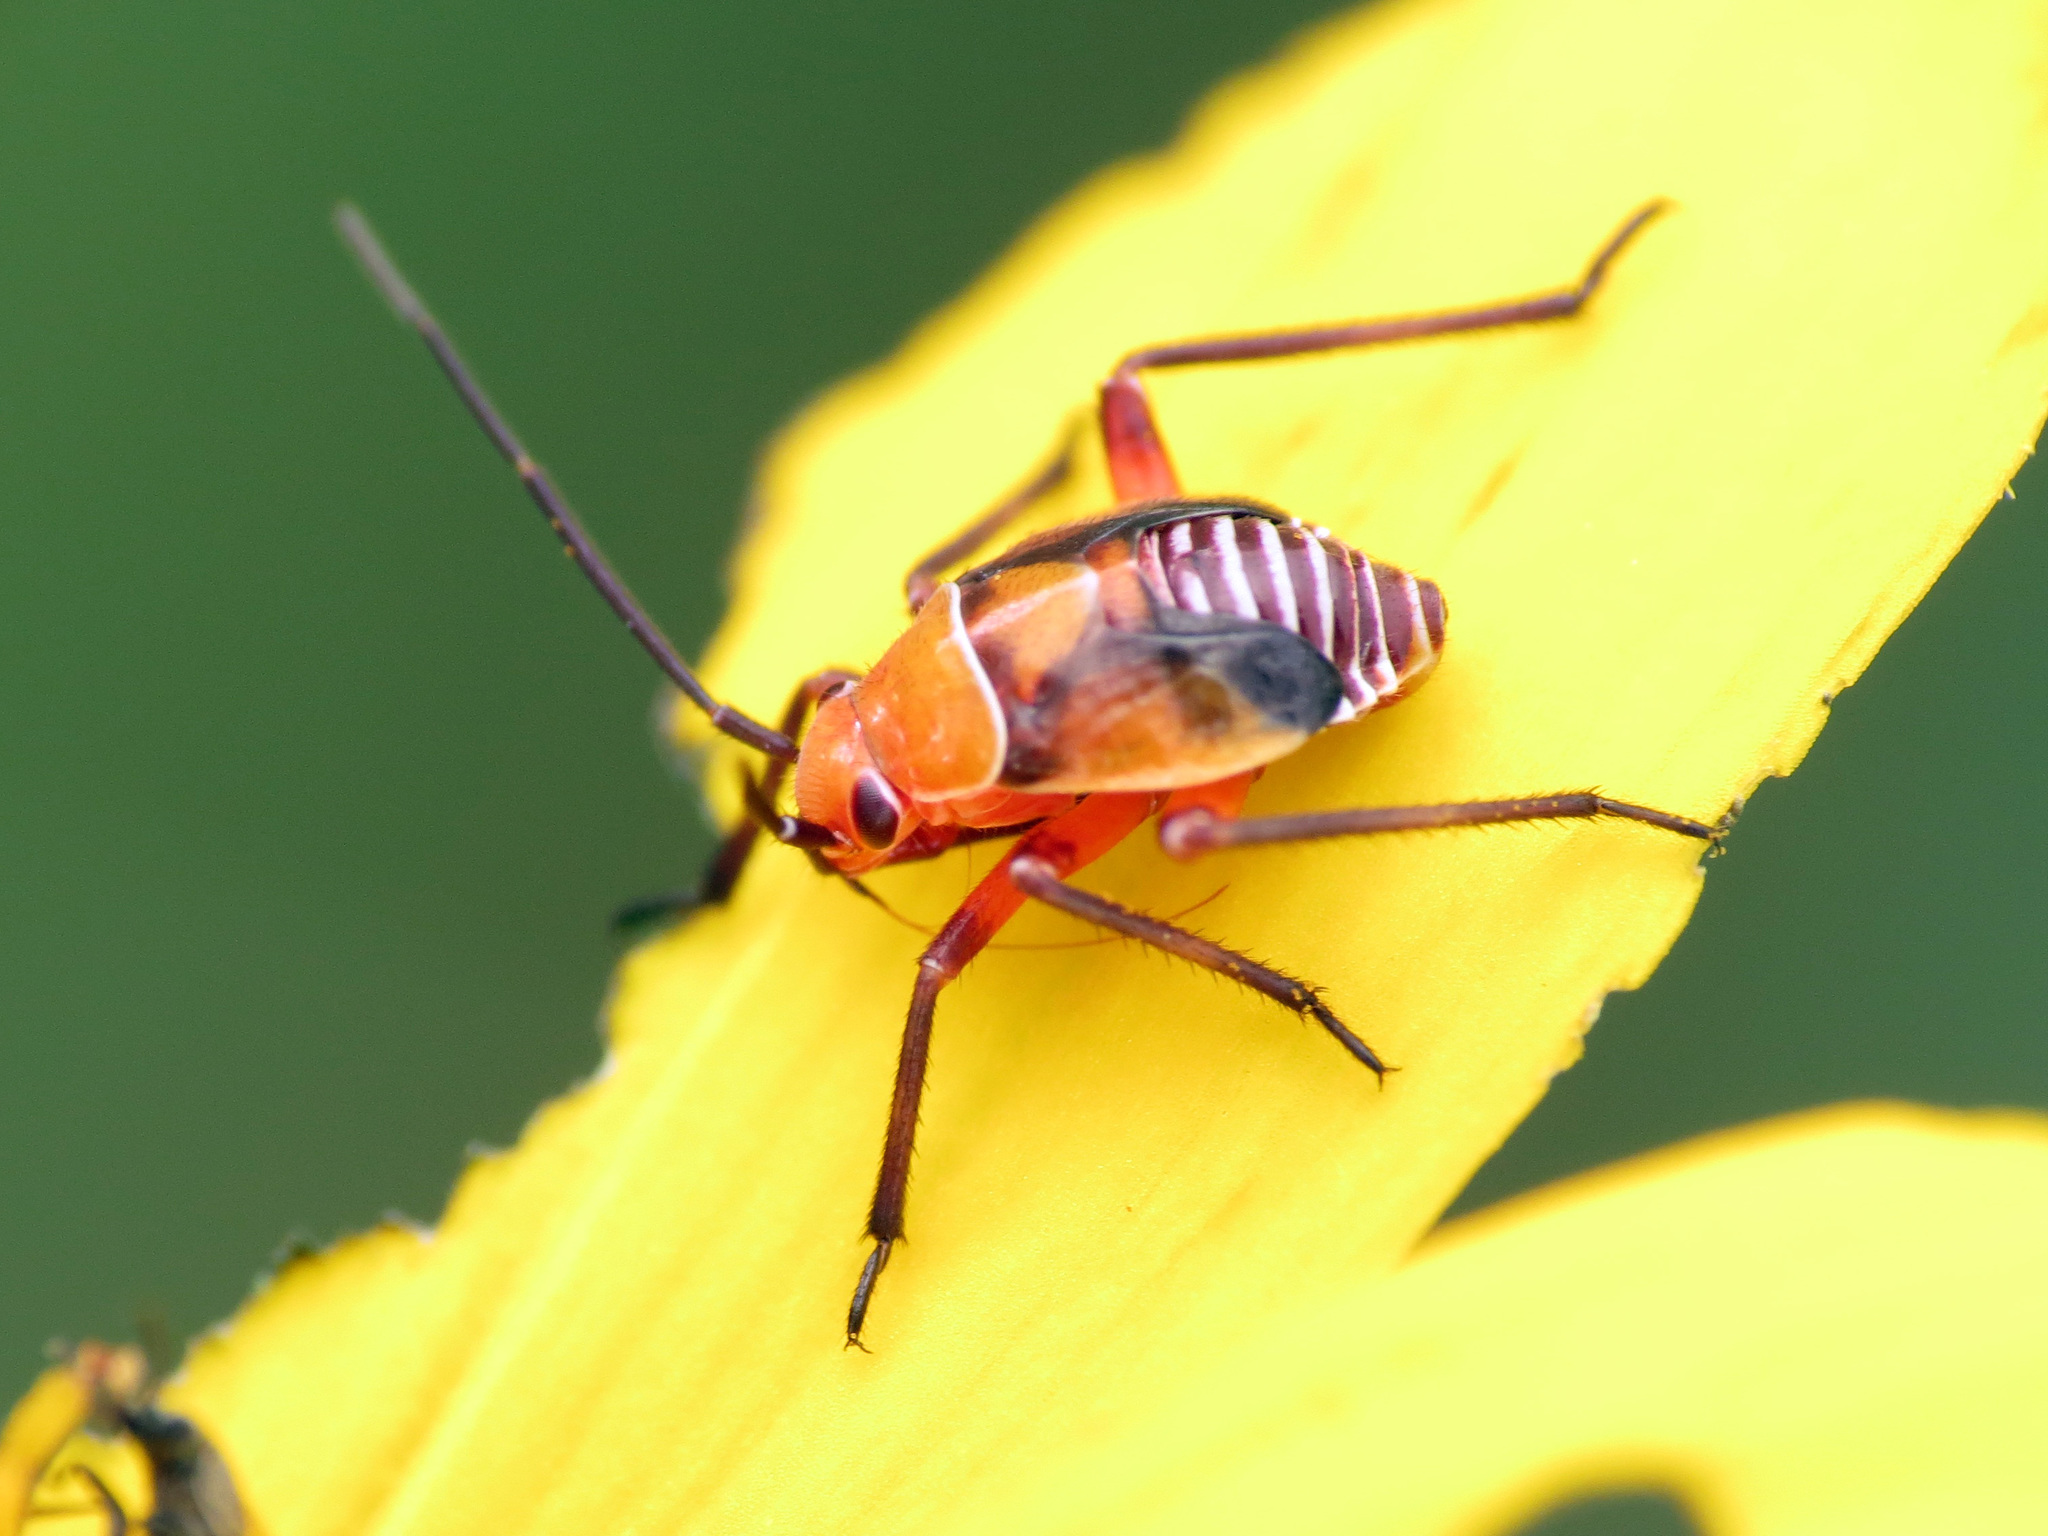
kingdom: Animalia
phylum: Arthropoda
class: Insecta
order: Hemiptera
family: Miridae
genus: Neocapsus
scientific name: Neocapsus fasciativentris
